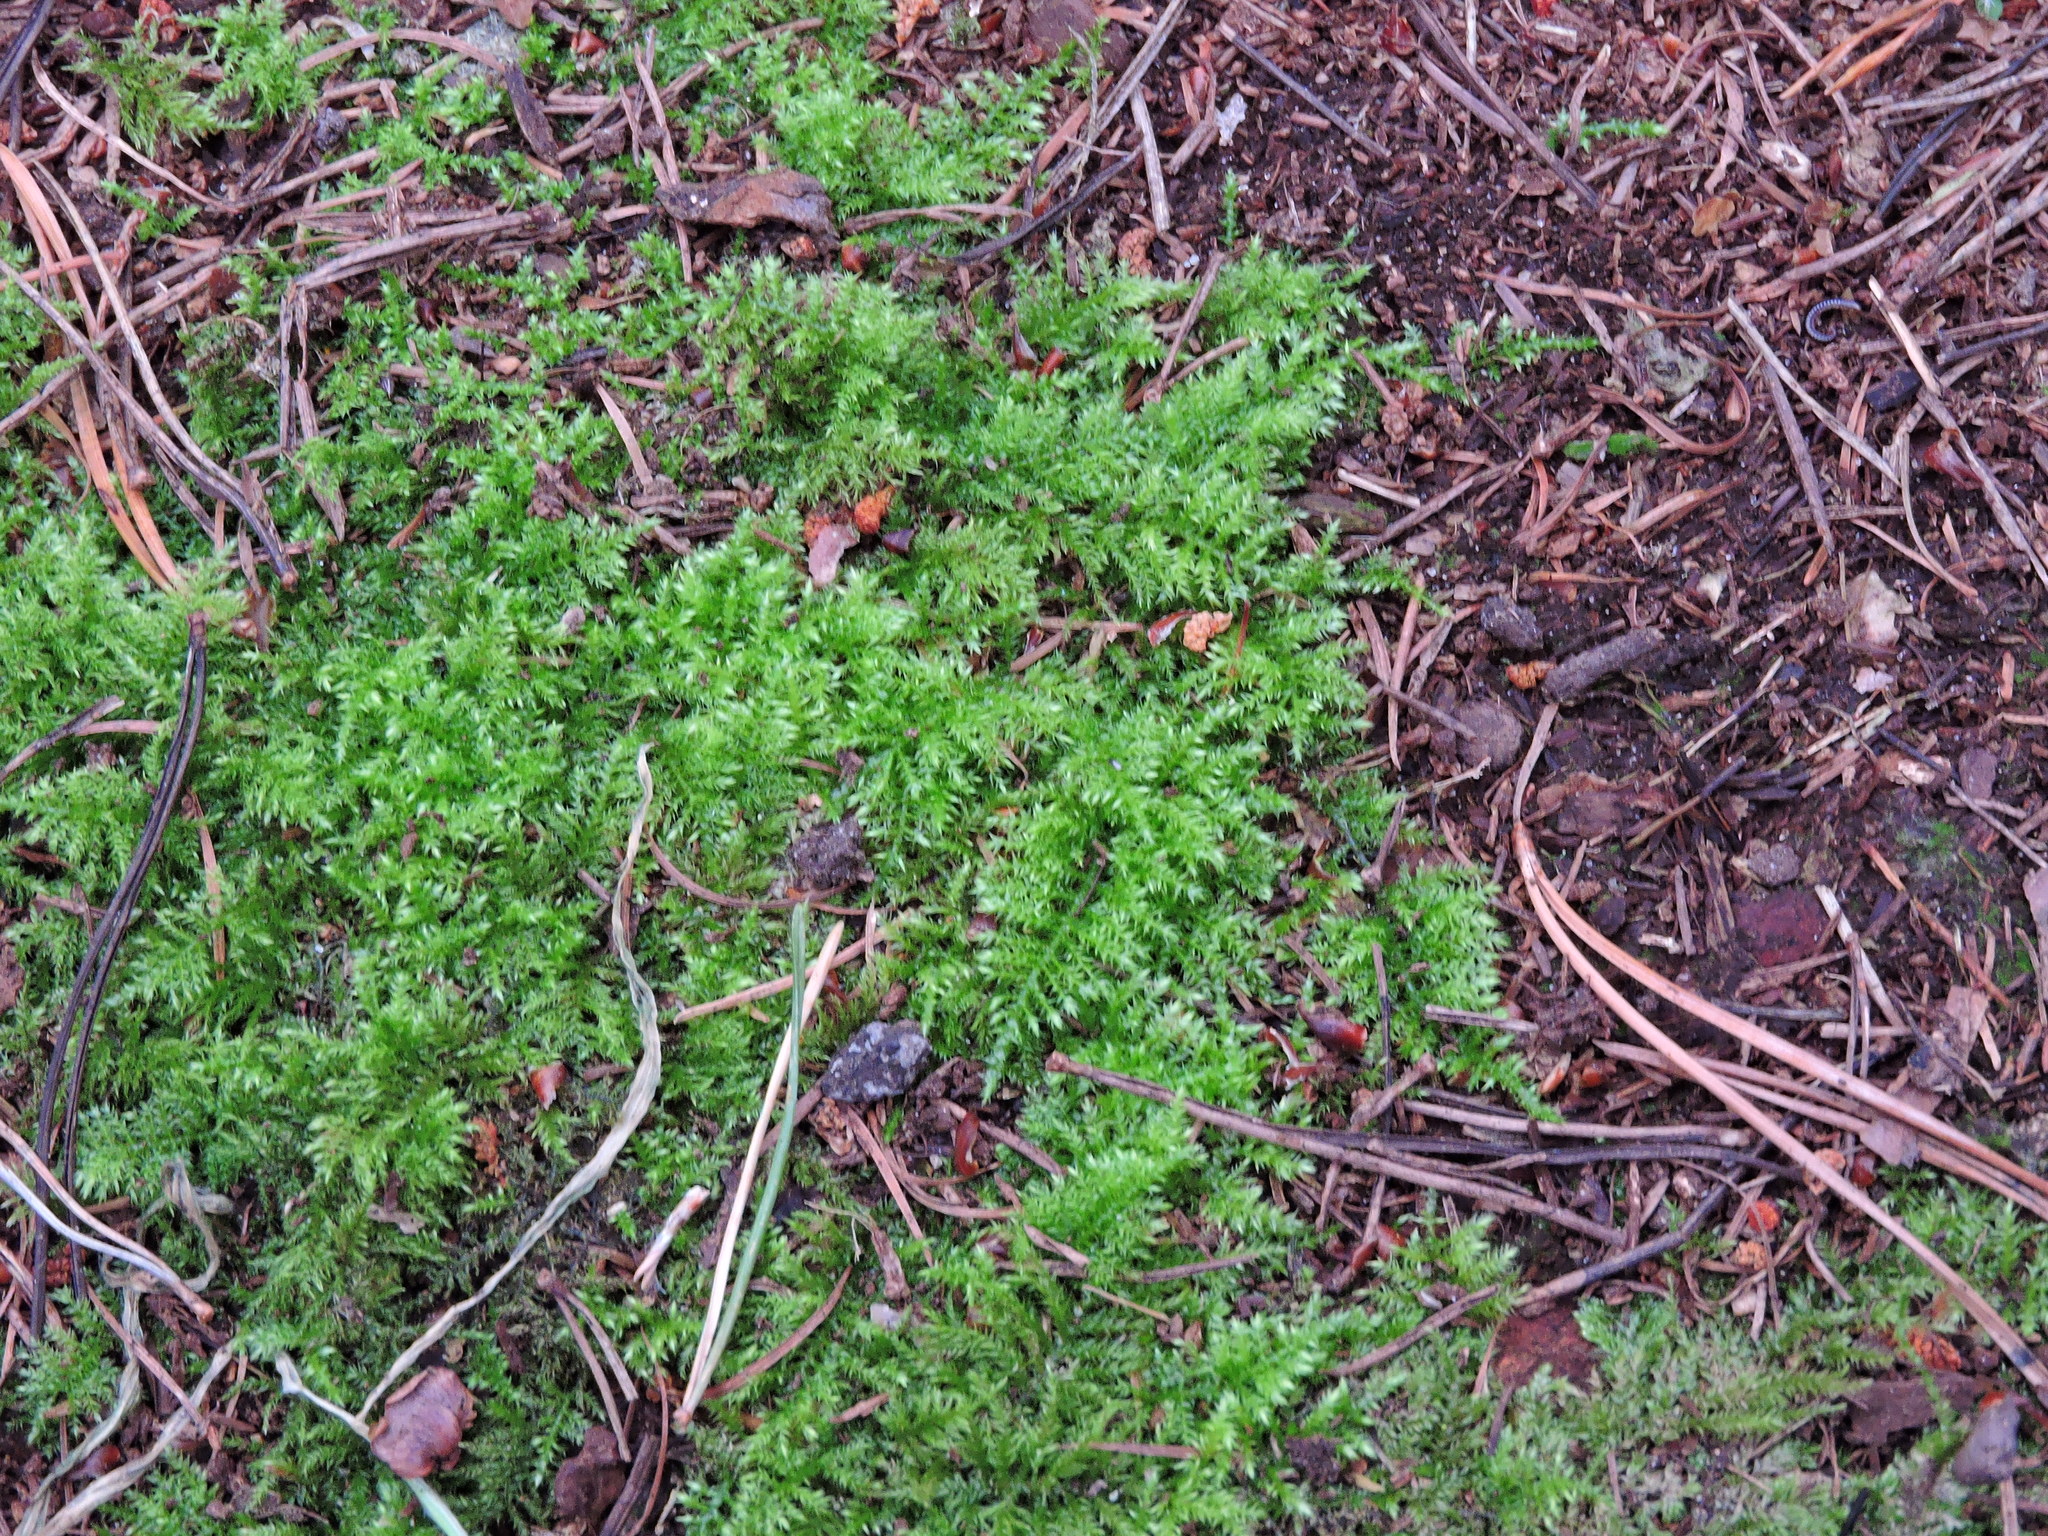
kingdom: Plantae
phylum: Bryophyta
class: Bryopsida
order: Hypnales
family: Brachytheciaceae
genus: Kindbergia
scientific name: Kindbergia praelonga
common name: Slender beaked moss
